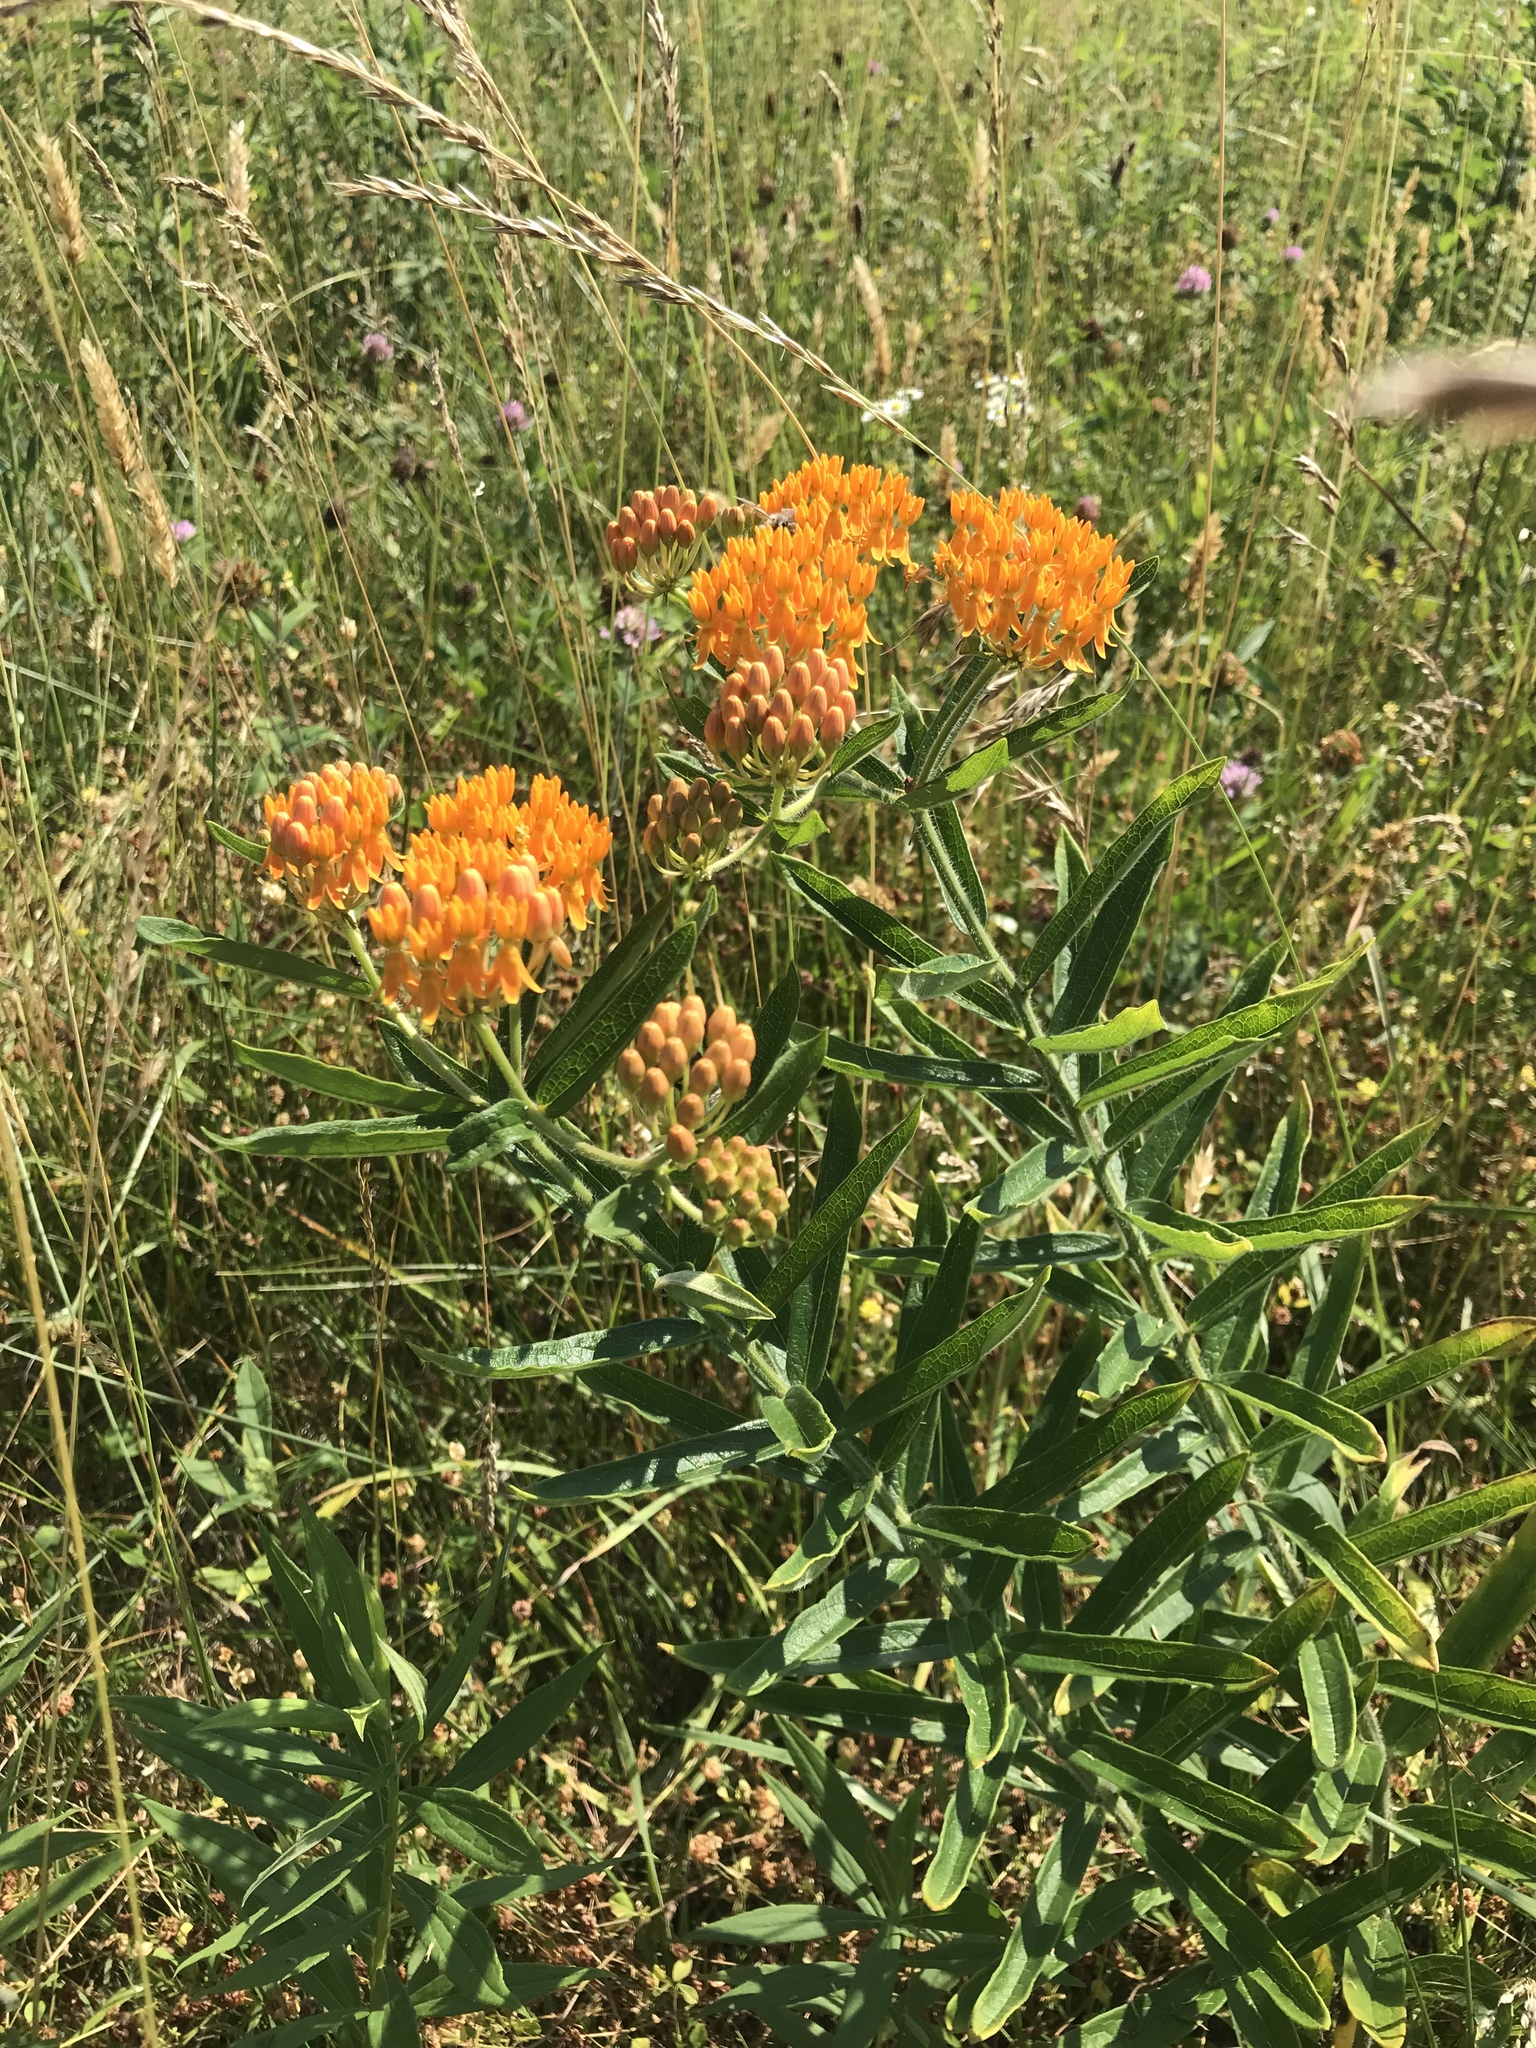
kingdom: Plantae
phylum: Tracheophyta
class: Magnoliopsida
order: Gentianales
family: Apocynaceae
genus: Asclepias
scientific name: Asclepias tuberosa
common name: Butterfly milkweed
